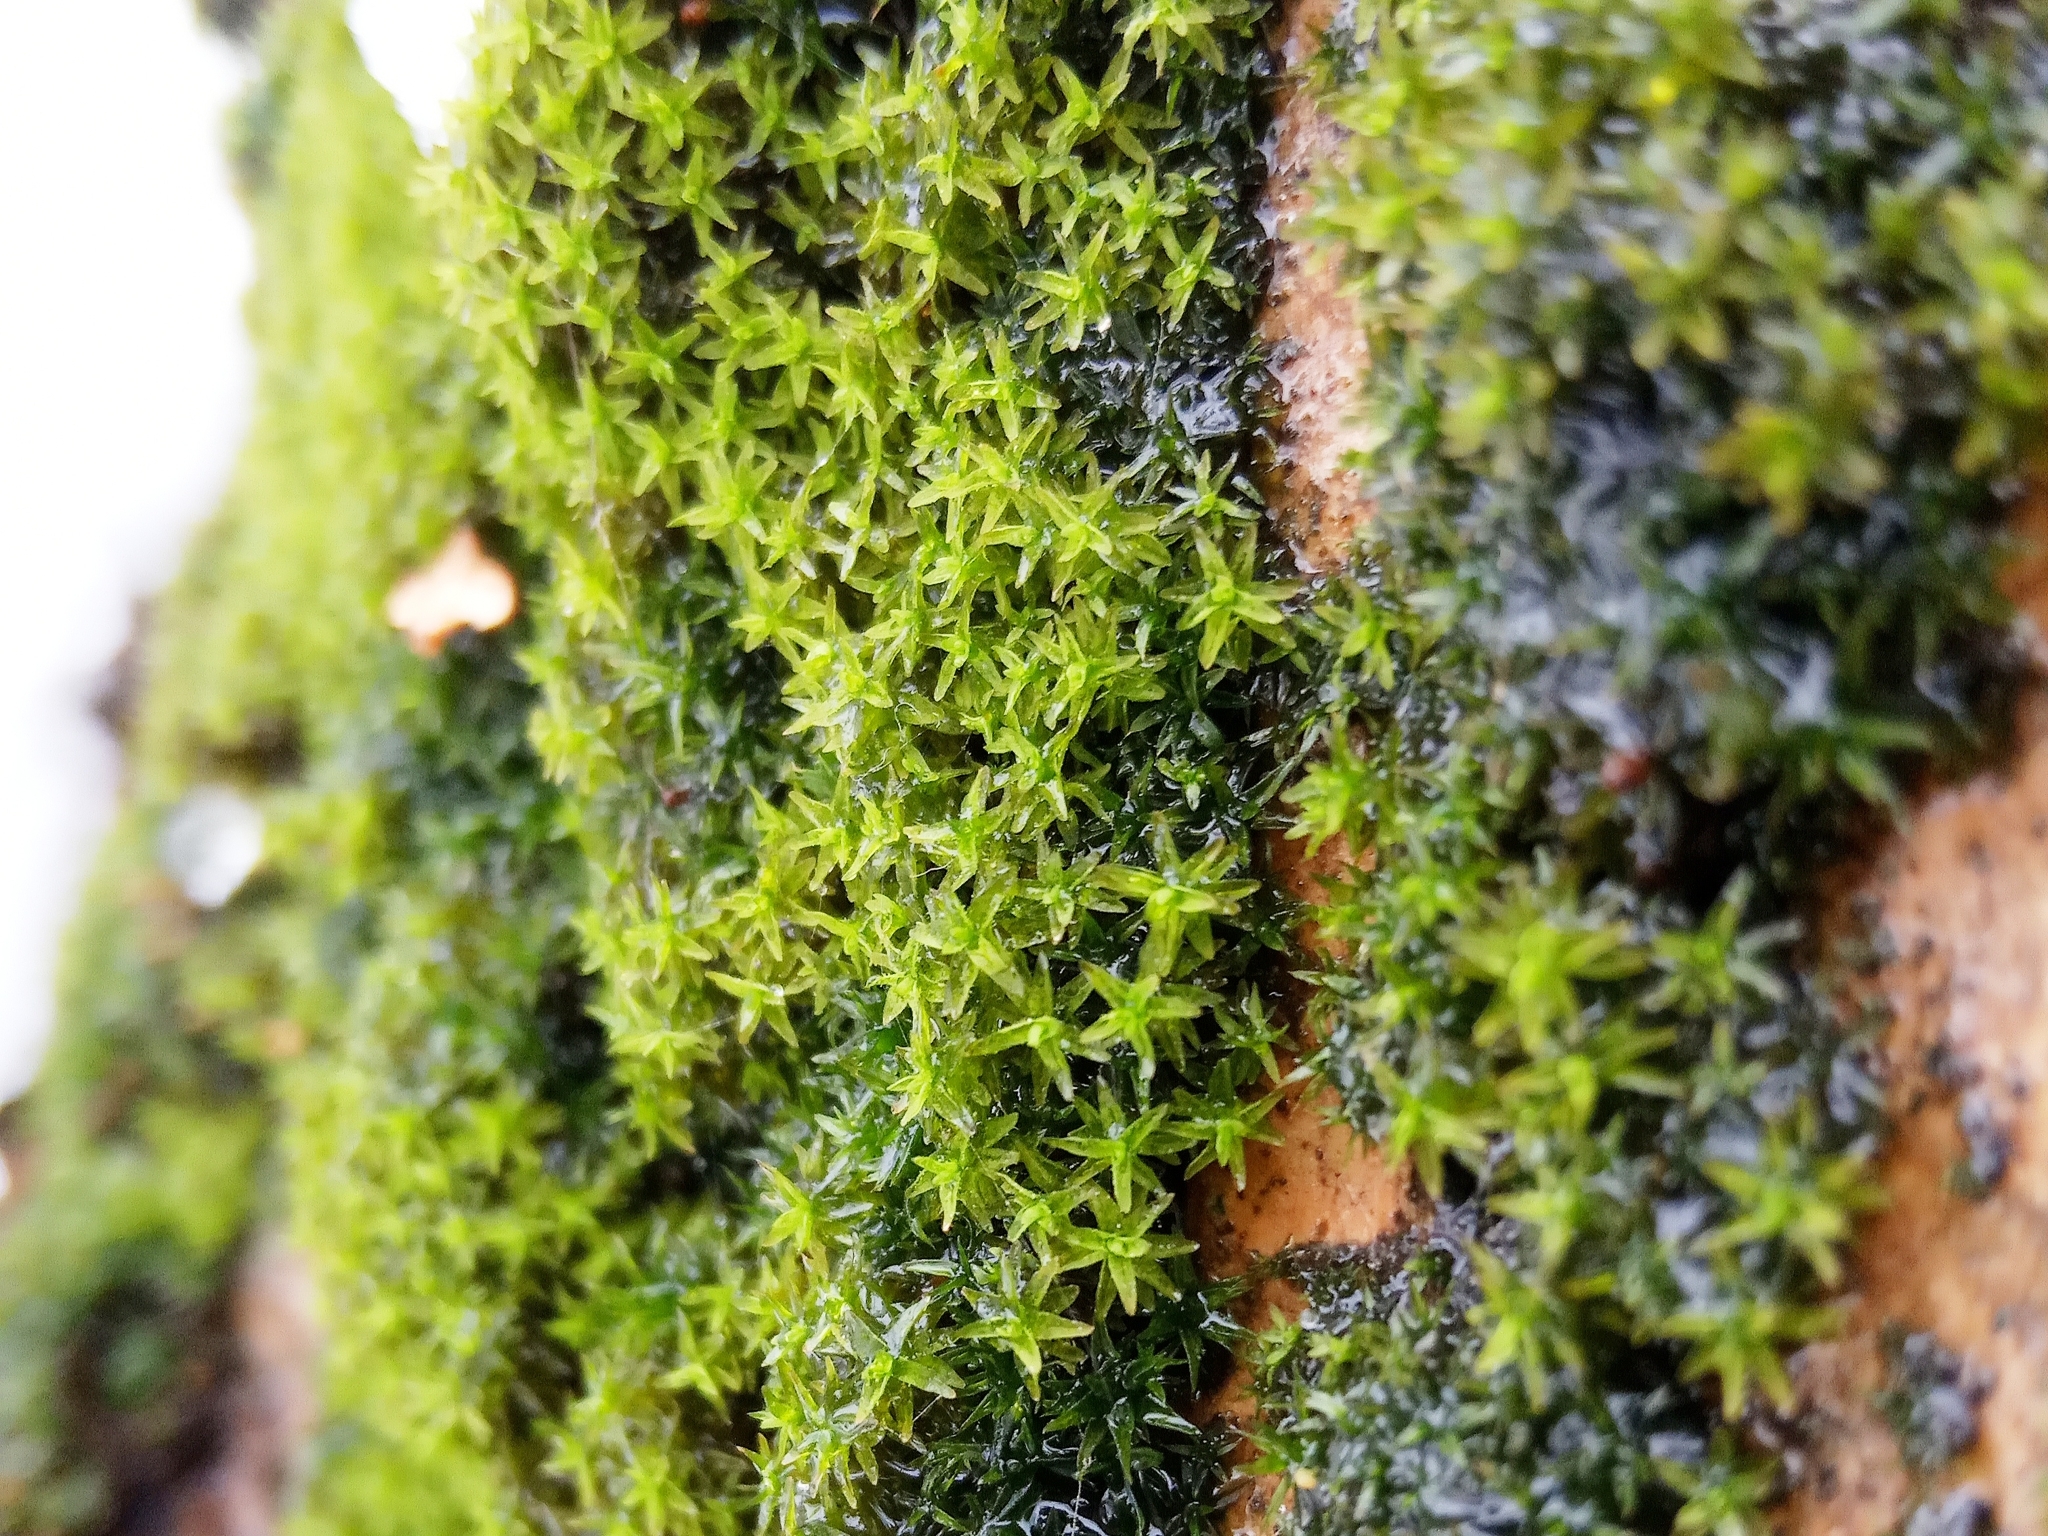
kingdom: Plantae
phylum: Bryophyta
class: Bryopsida
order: Orthotrichales
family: Orthotrichaceae
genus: Nyholmiella
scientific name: Nyholmiella obtusifolia
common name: Blunt-leaved bristle-moss
